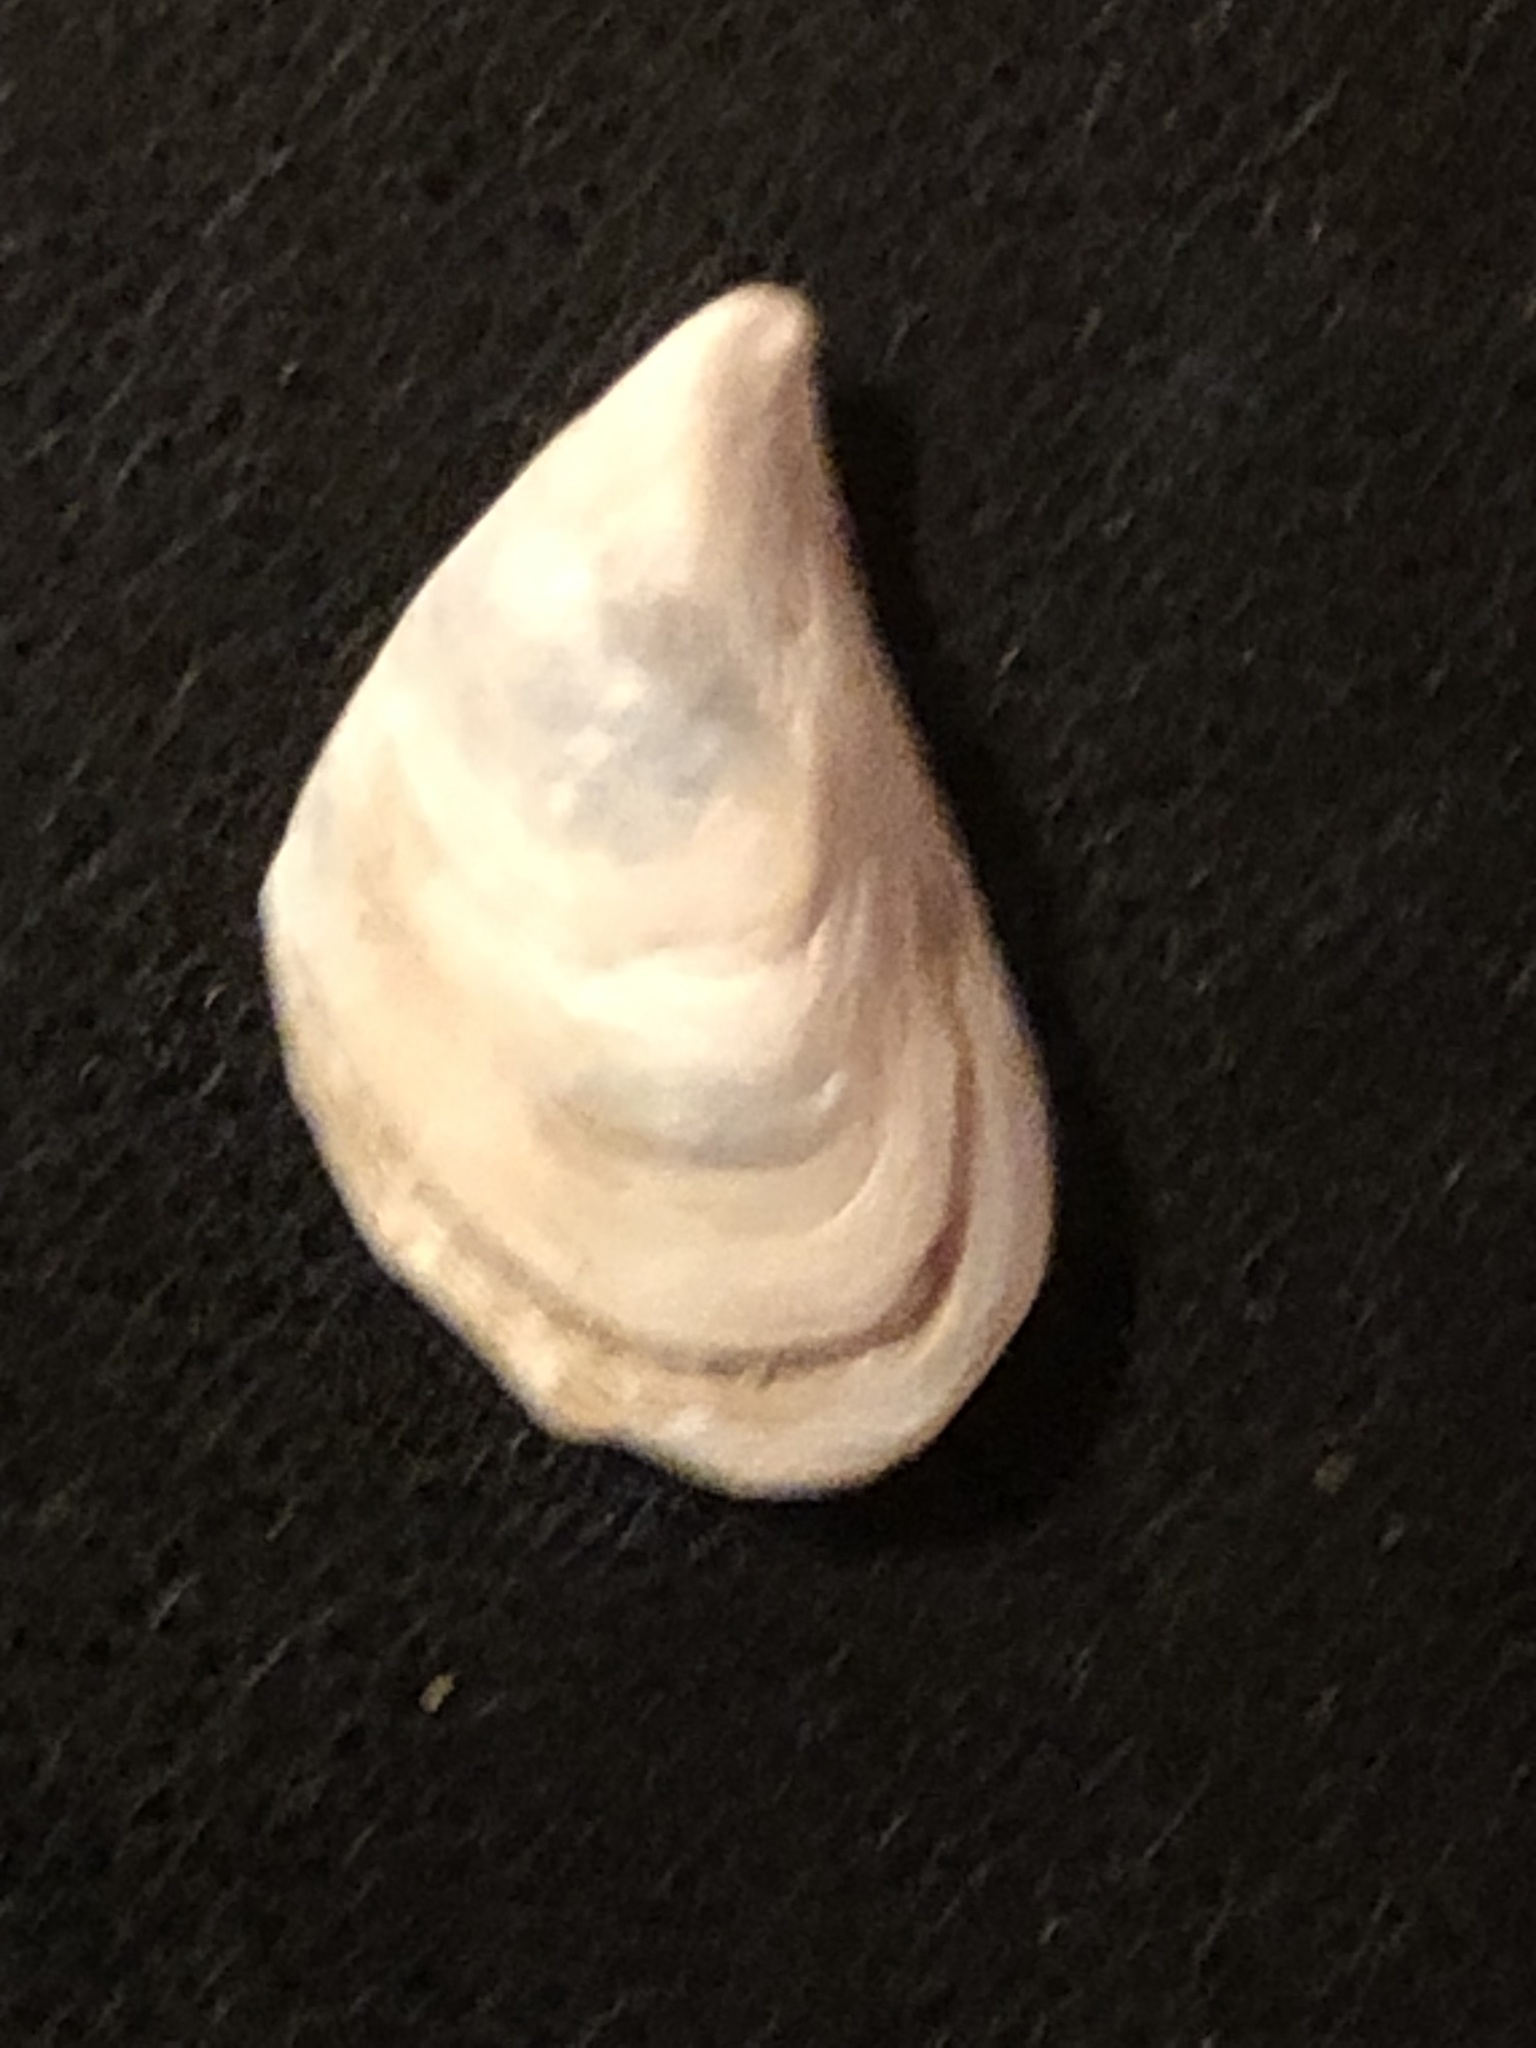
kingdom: Animalia
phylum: Mollusca
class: Bivalvia
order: Myida
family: Dreissenidae
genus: Dreissena
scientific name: Dreissena bugensis
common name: Quagga mussel
